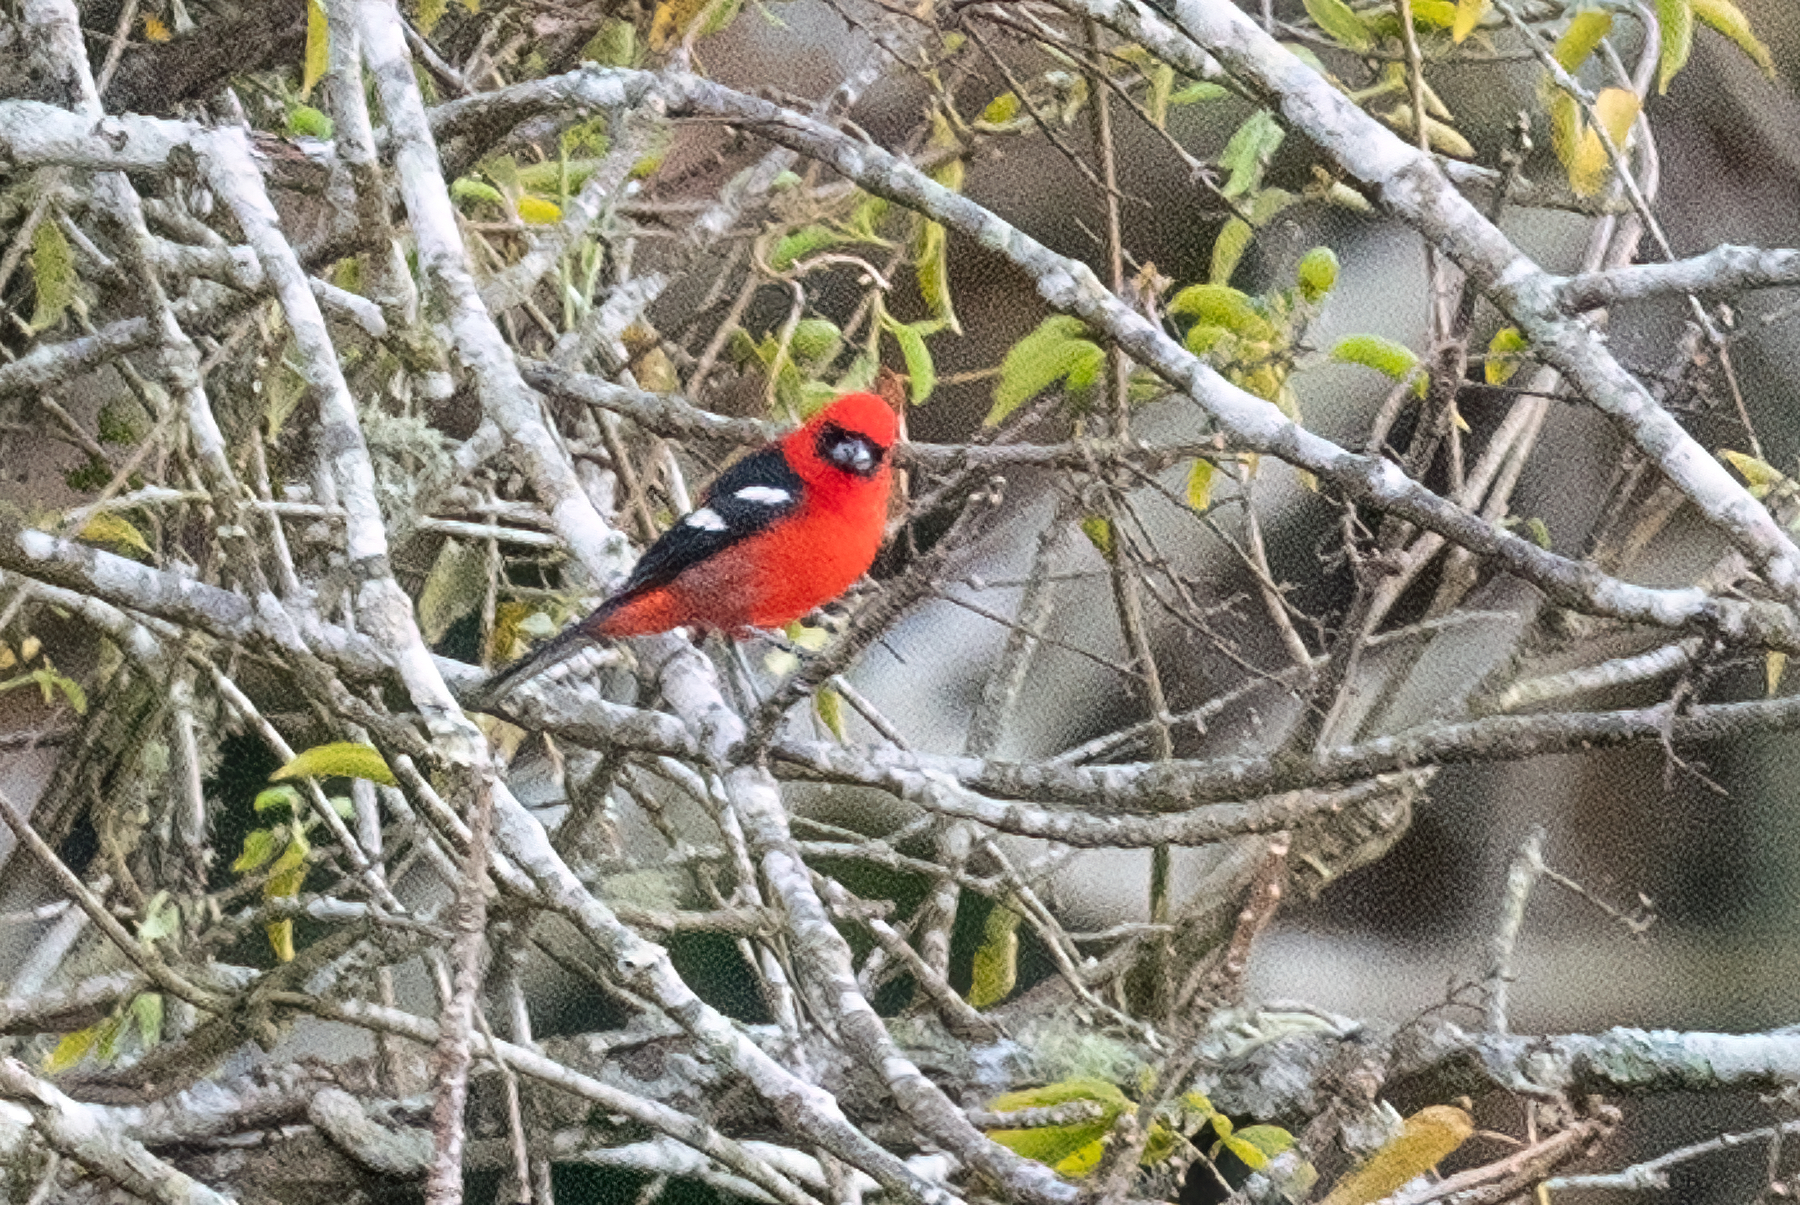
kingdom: Animalia
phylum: Chordata
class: Aves
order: Passeriformes
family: Cardinalidae
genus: Piranga
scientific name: Piranga leucoptera
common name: White-winged tanager
